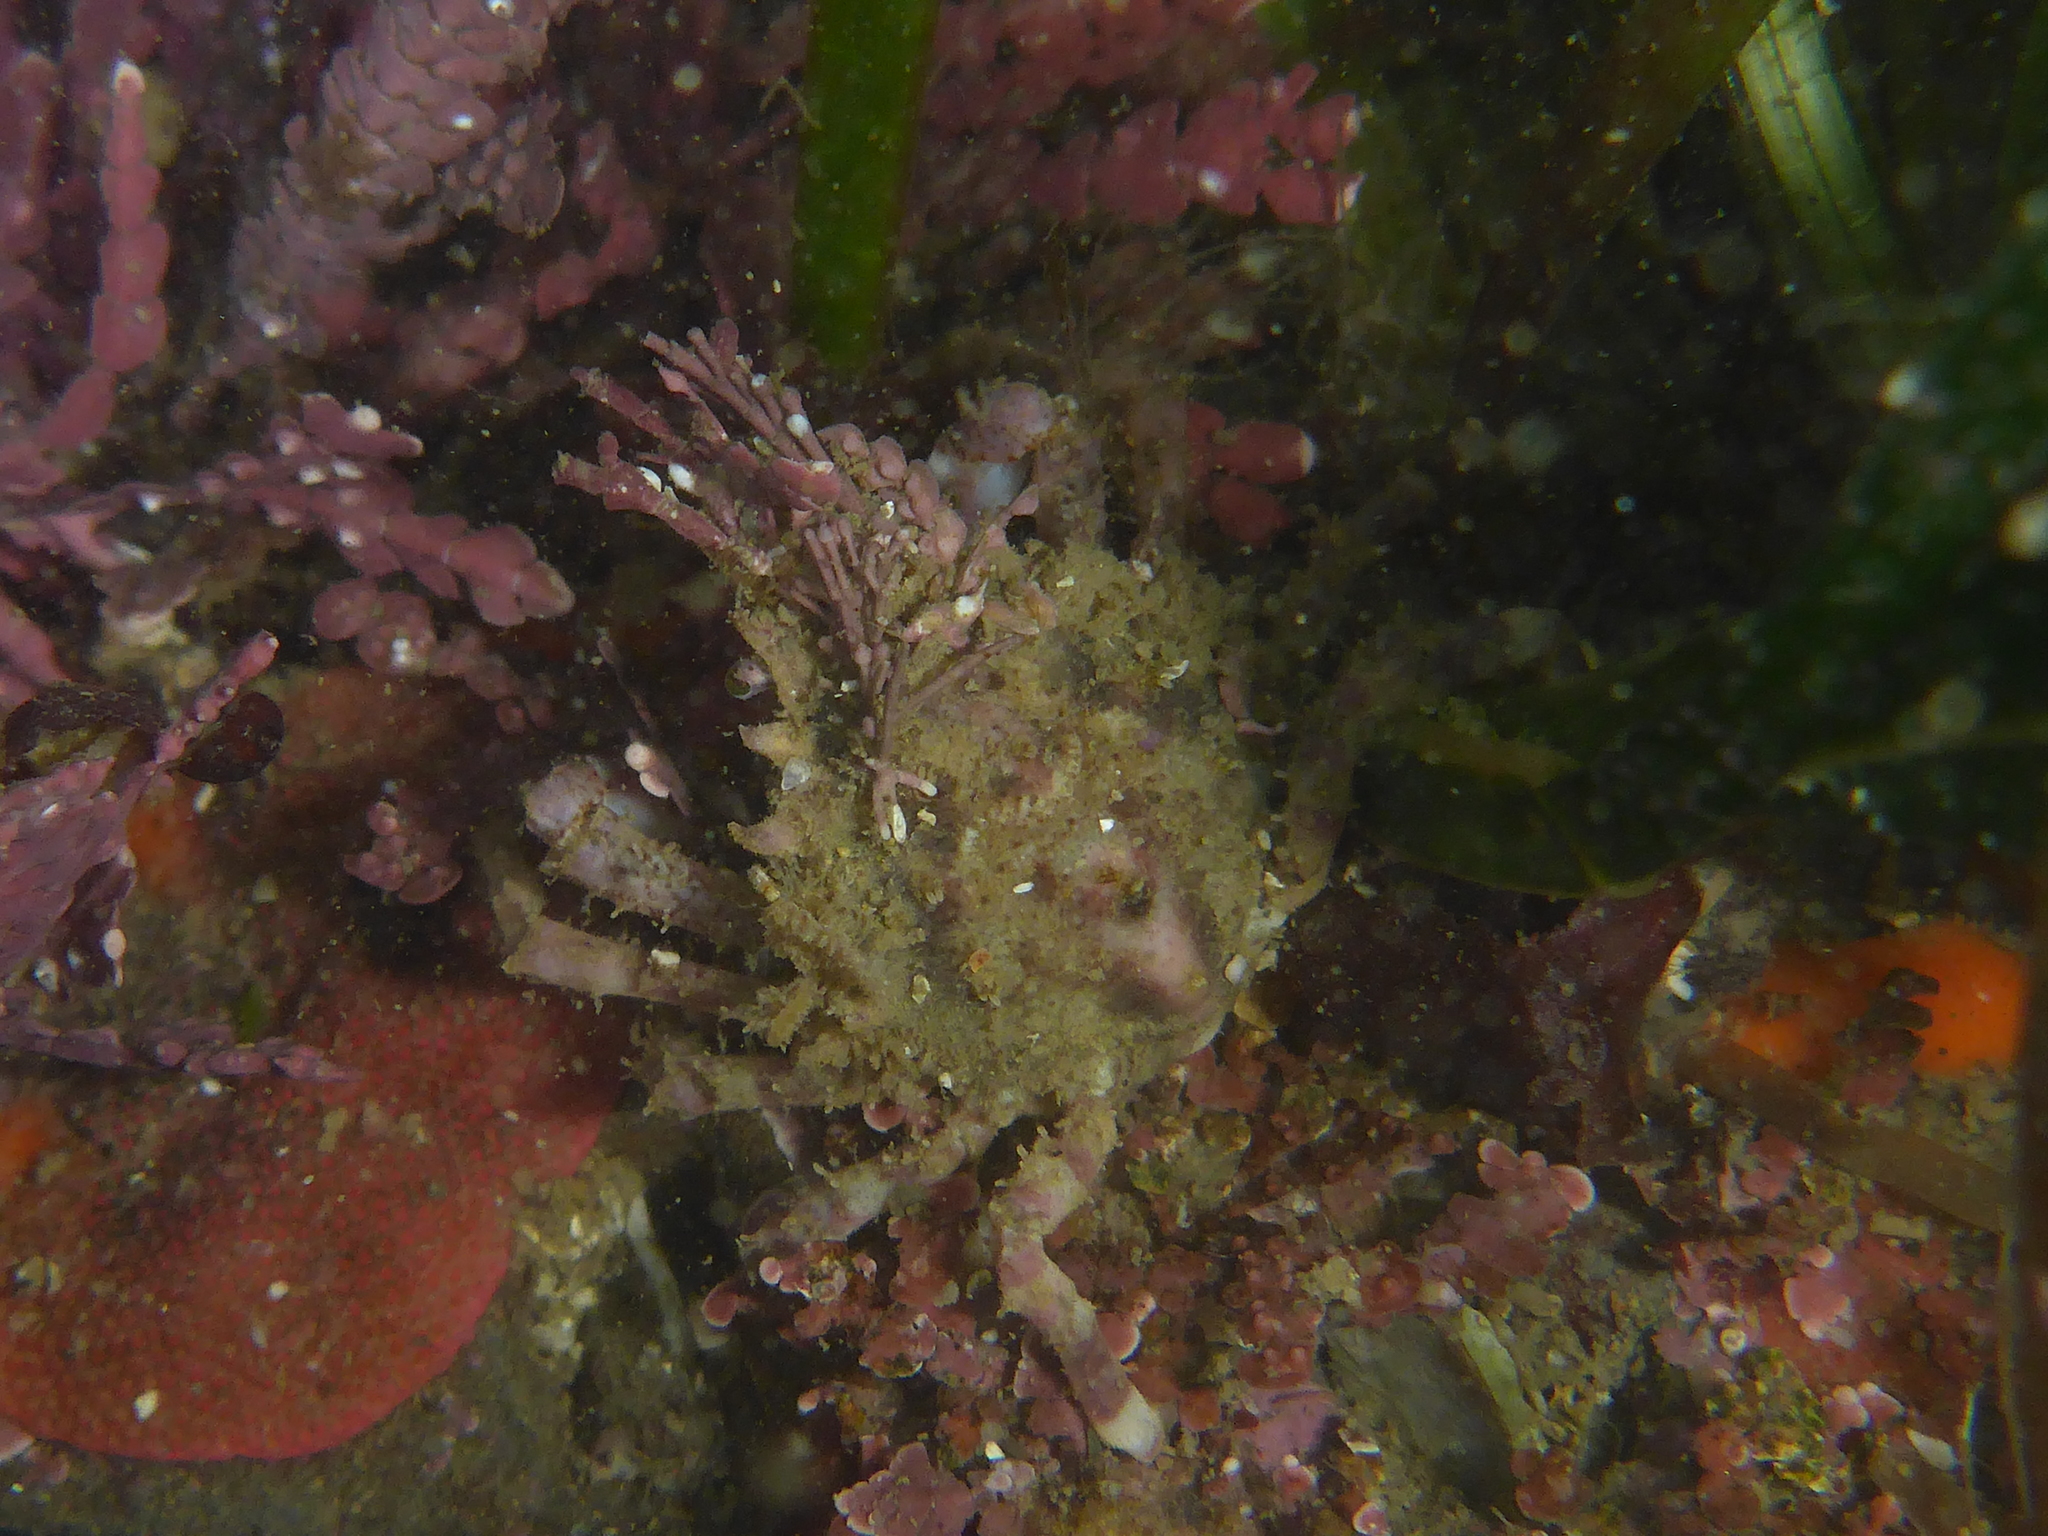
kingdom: Animalia
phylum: Arthropoda
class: Malacostraca
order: Decapoda
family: Epialtidae
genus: Pugettia
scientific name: Pugettia richii
